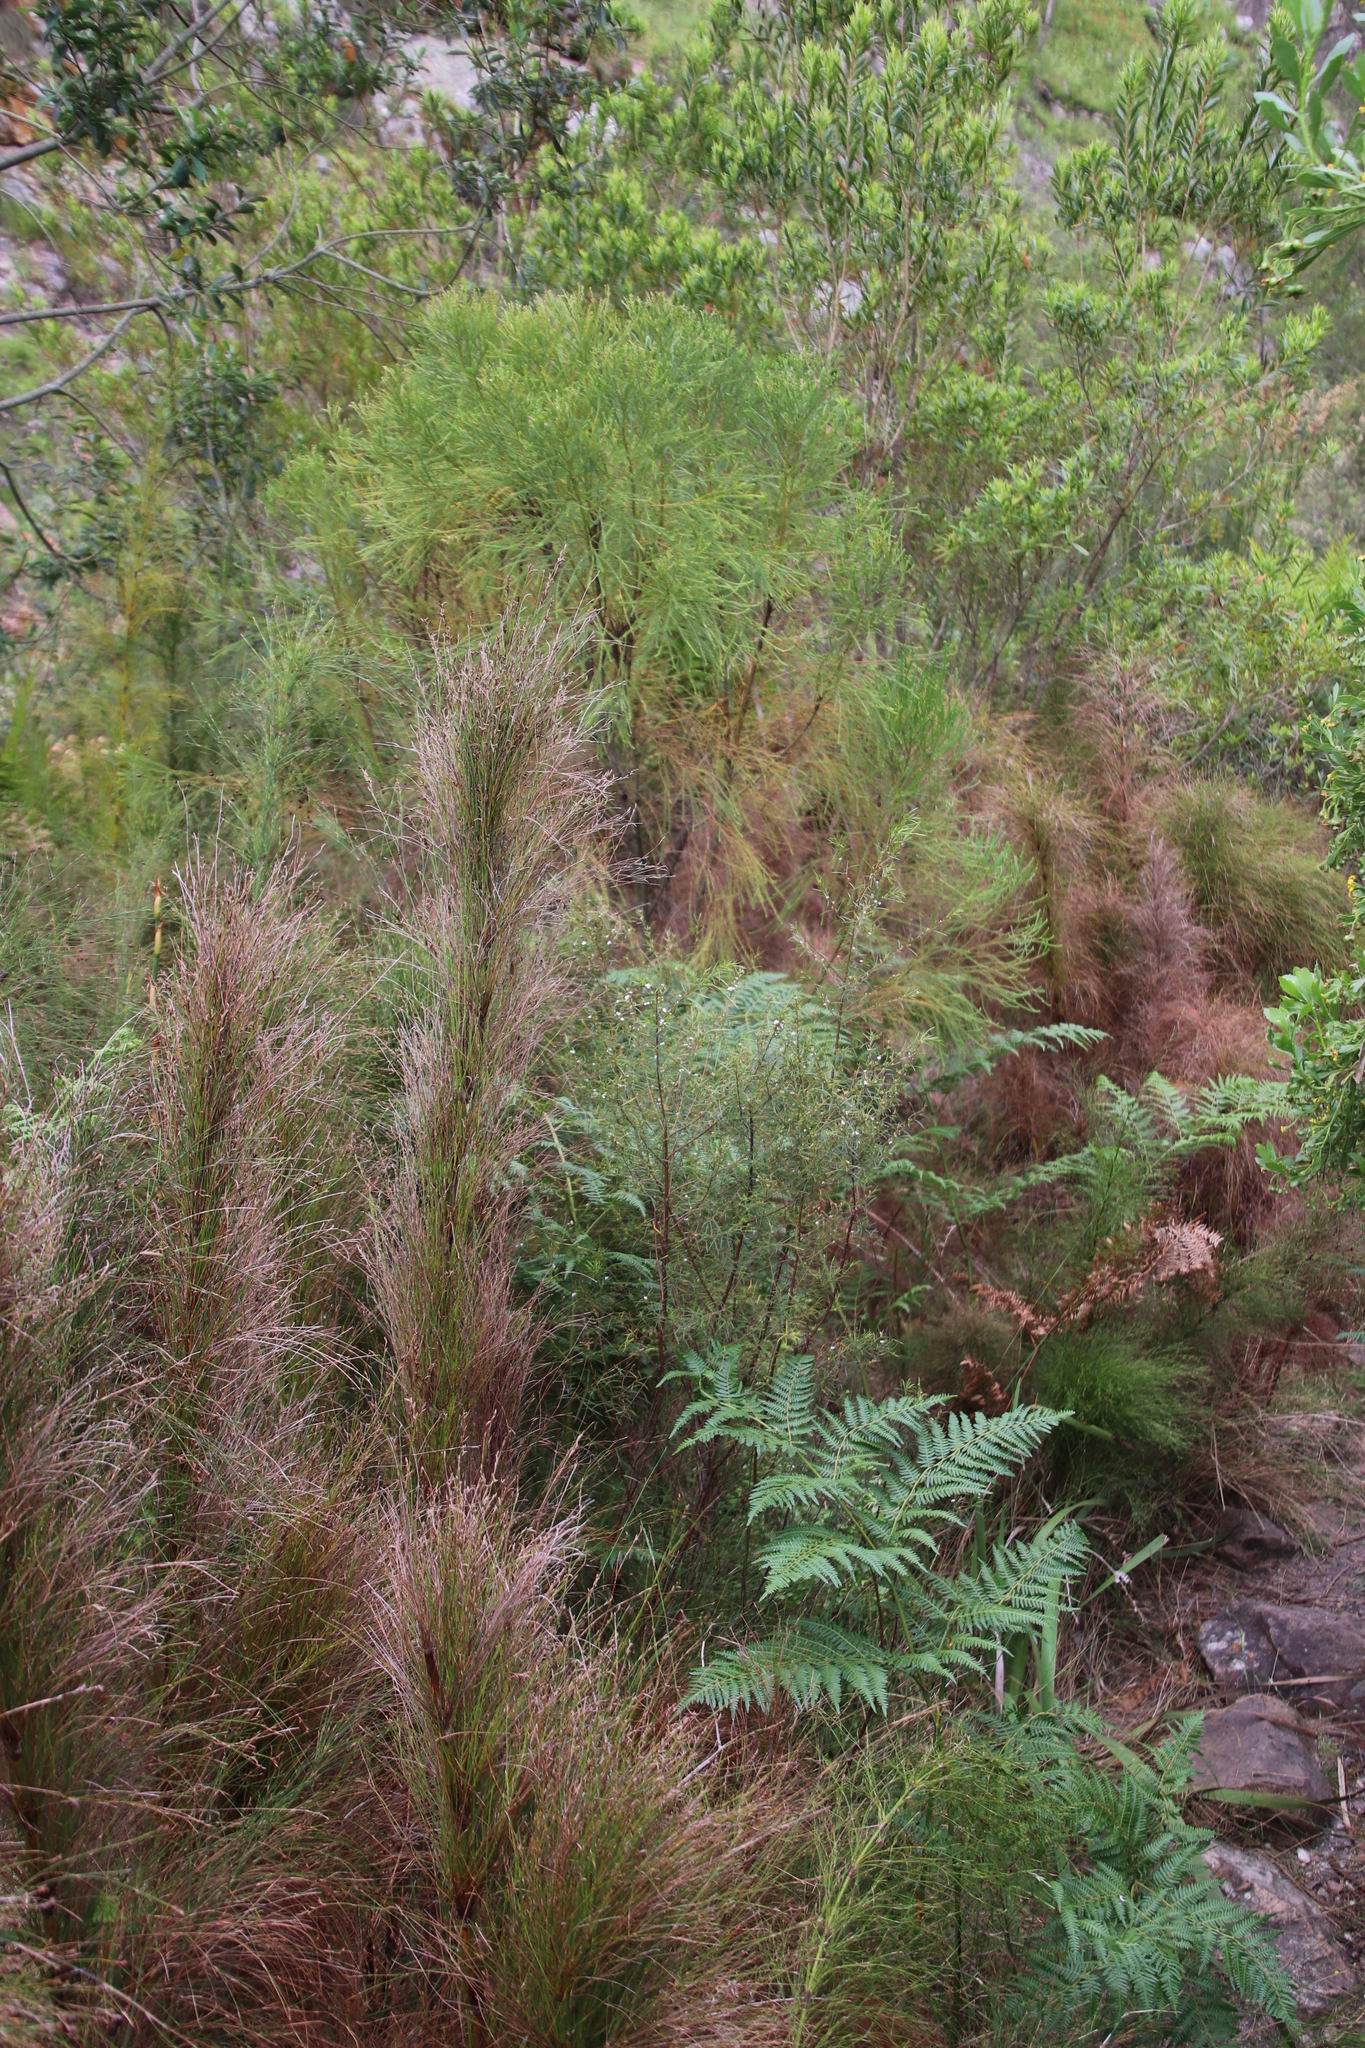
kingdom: Plantae
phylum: Tracheophyta
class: Liliopsida
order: Poales
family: Restionaceae
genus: Restio
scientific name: Restio subverticillatus
